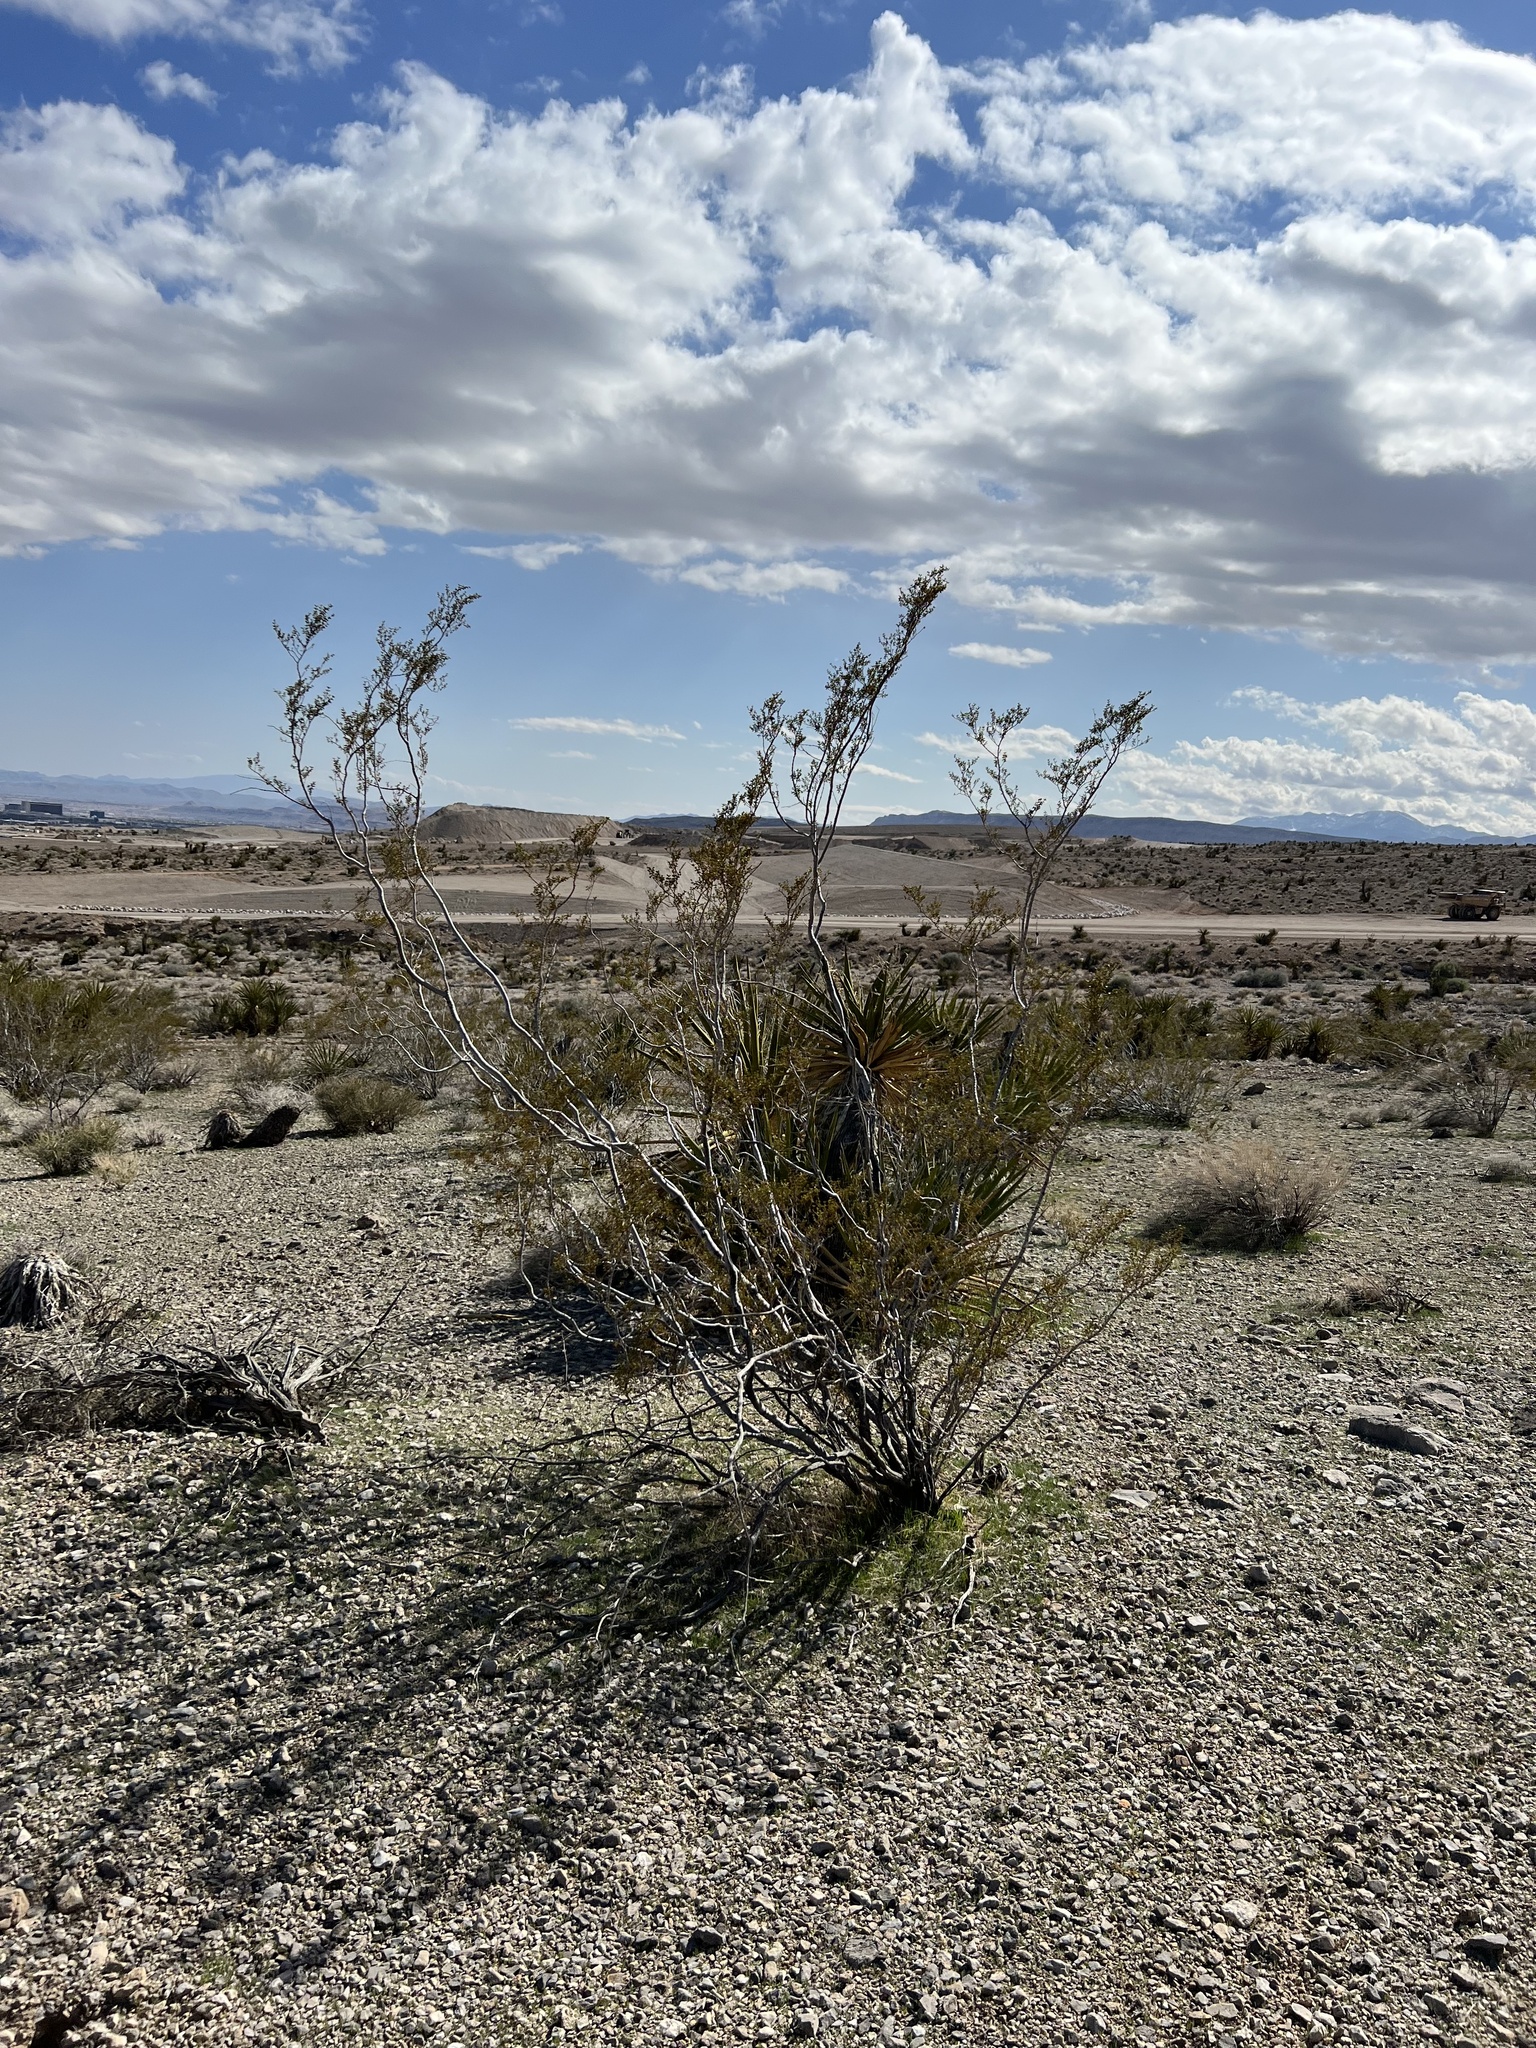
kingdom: Plantae
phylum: Tracheophyta
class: Magnoliopsida
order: Zygophyllales
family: Zygophyllaceae
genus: Larrea
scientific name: Larrea tridentata
